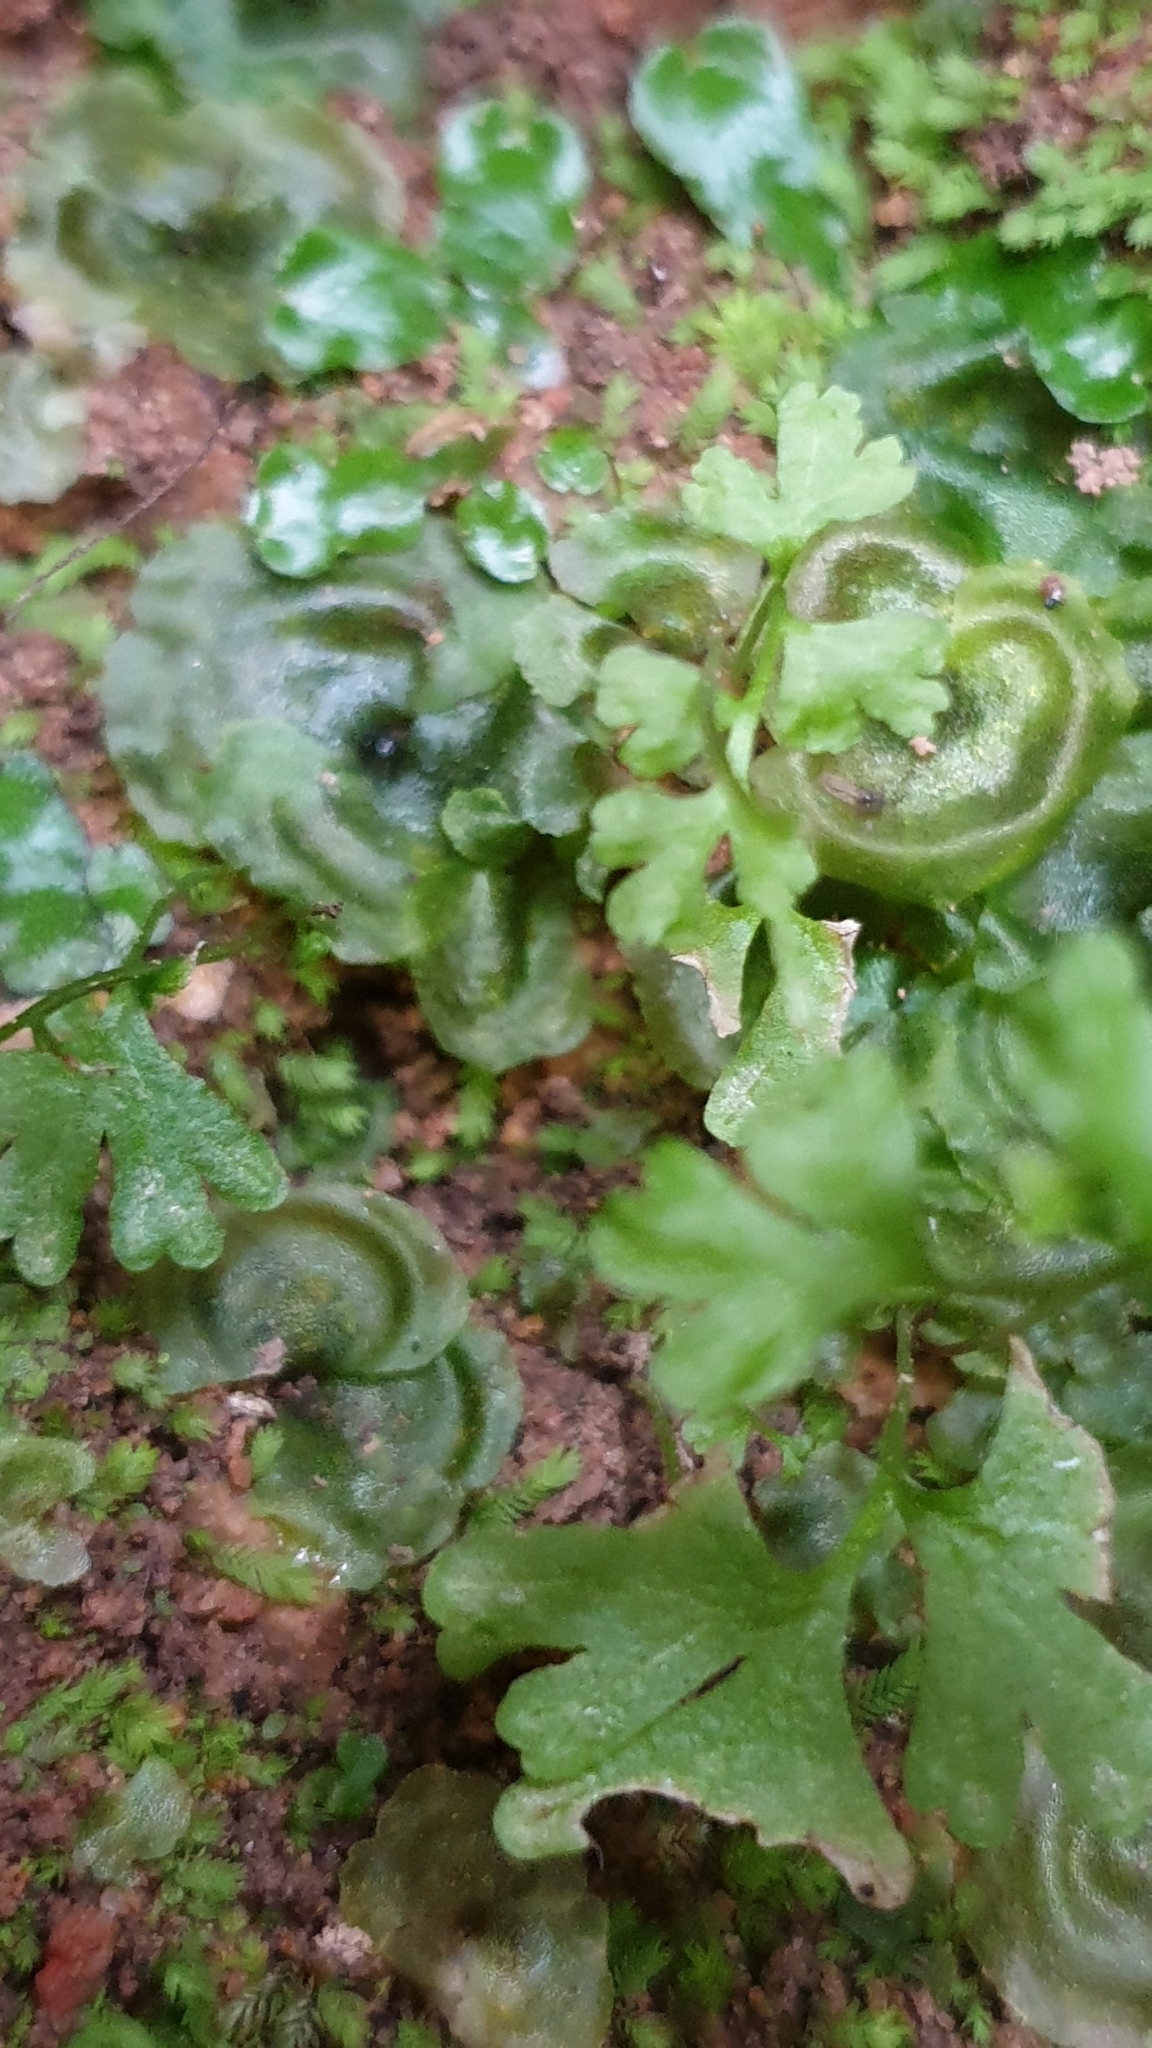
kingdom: Plantae
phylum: Tracheophyta
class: Polypodiopsida
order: Polypodiales
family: Pteridaceae
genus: Anogramma
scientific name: Anogramma leptophylla
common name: Jersey fern
